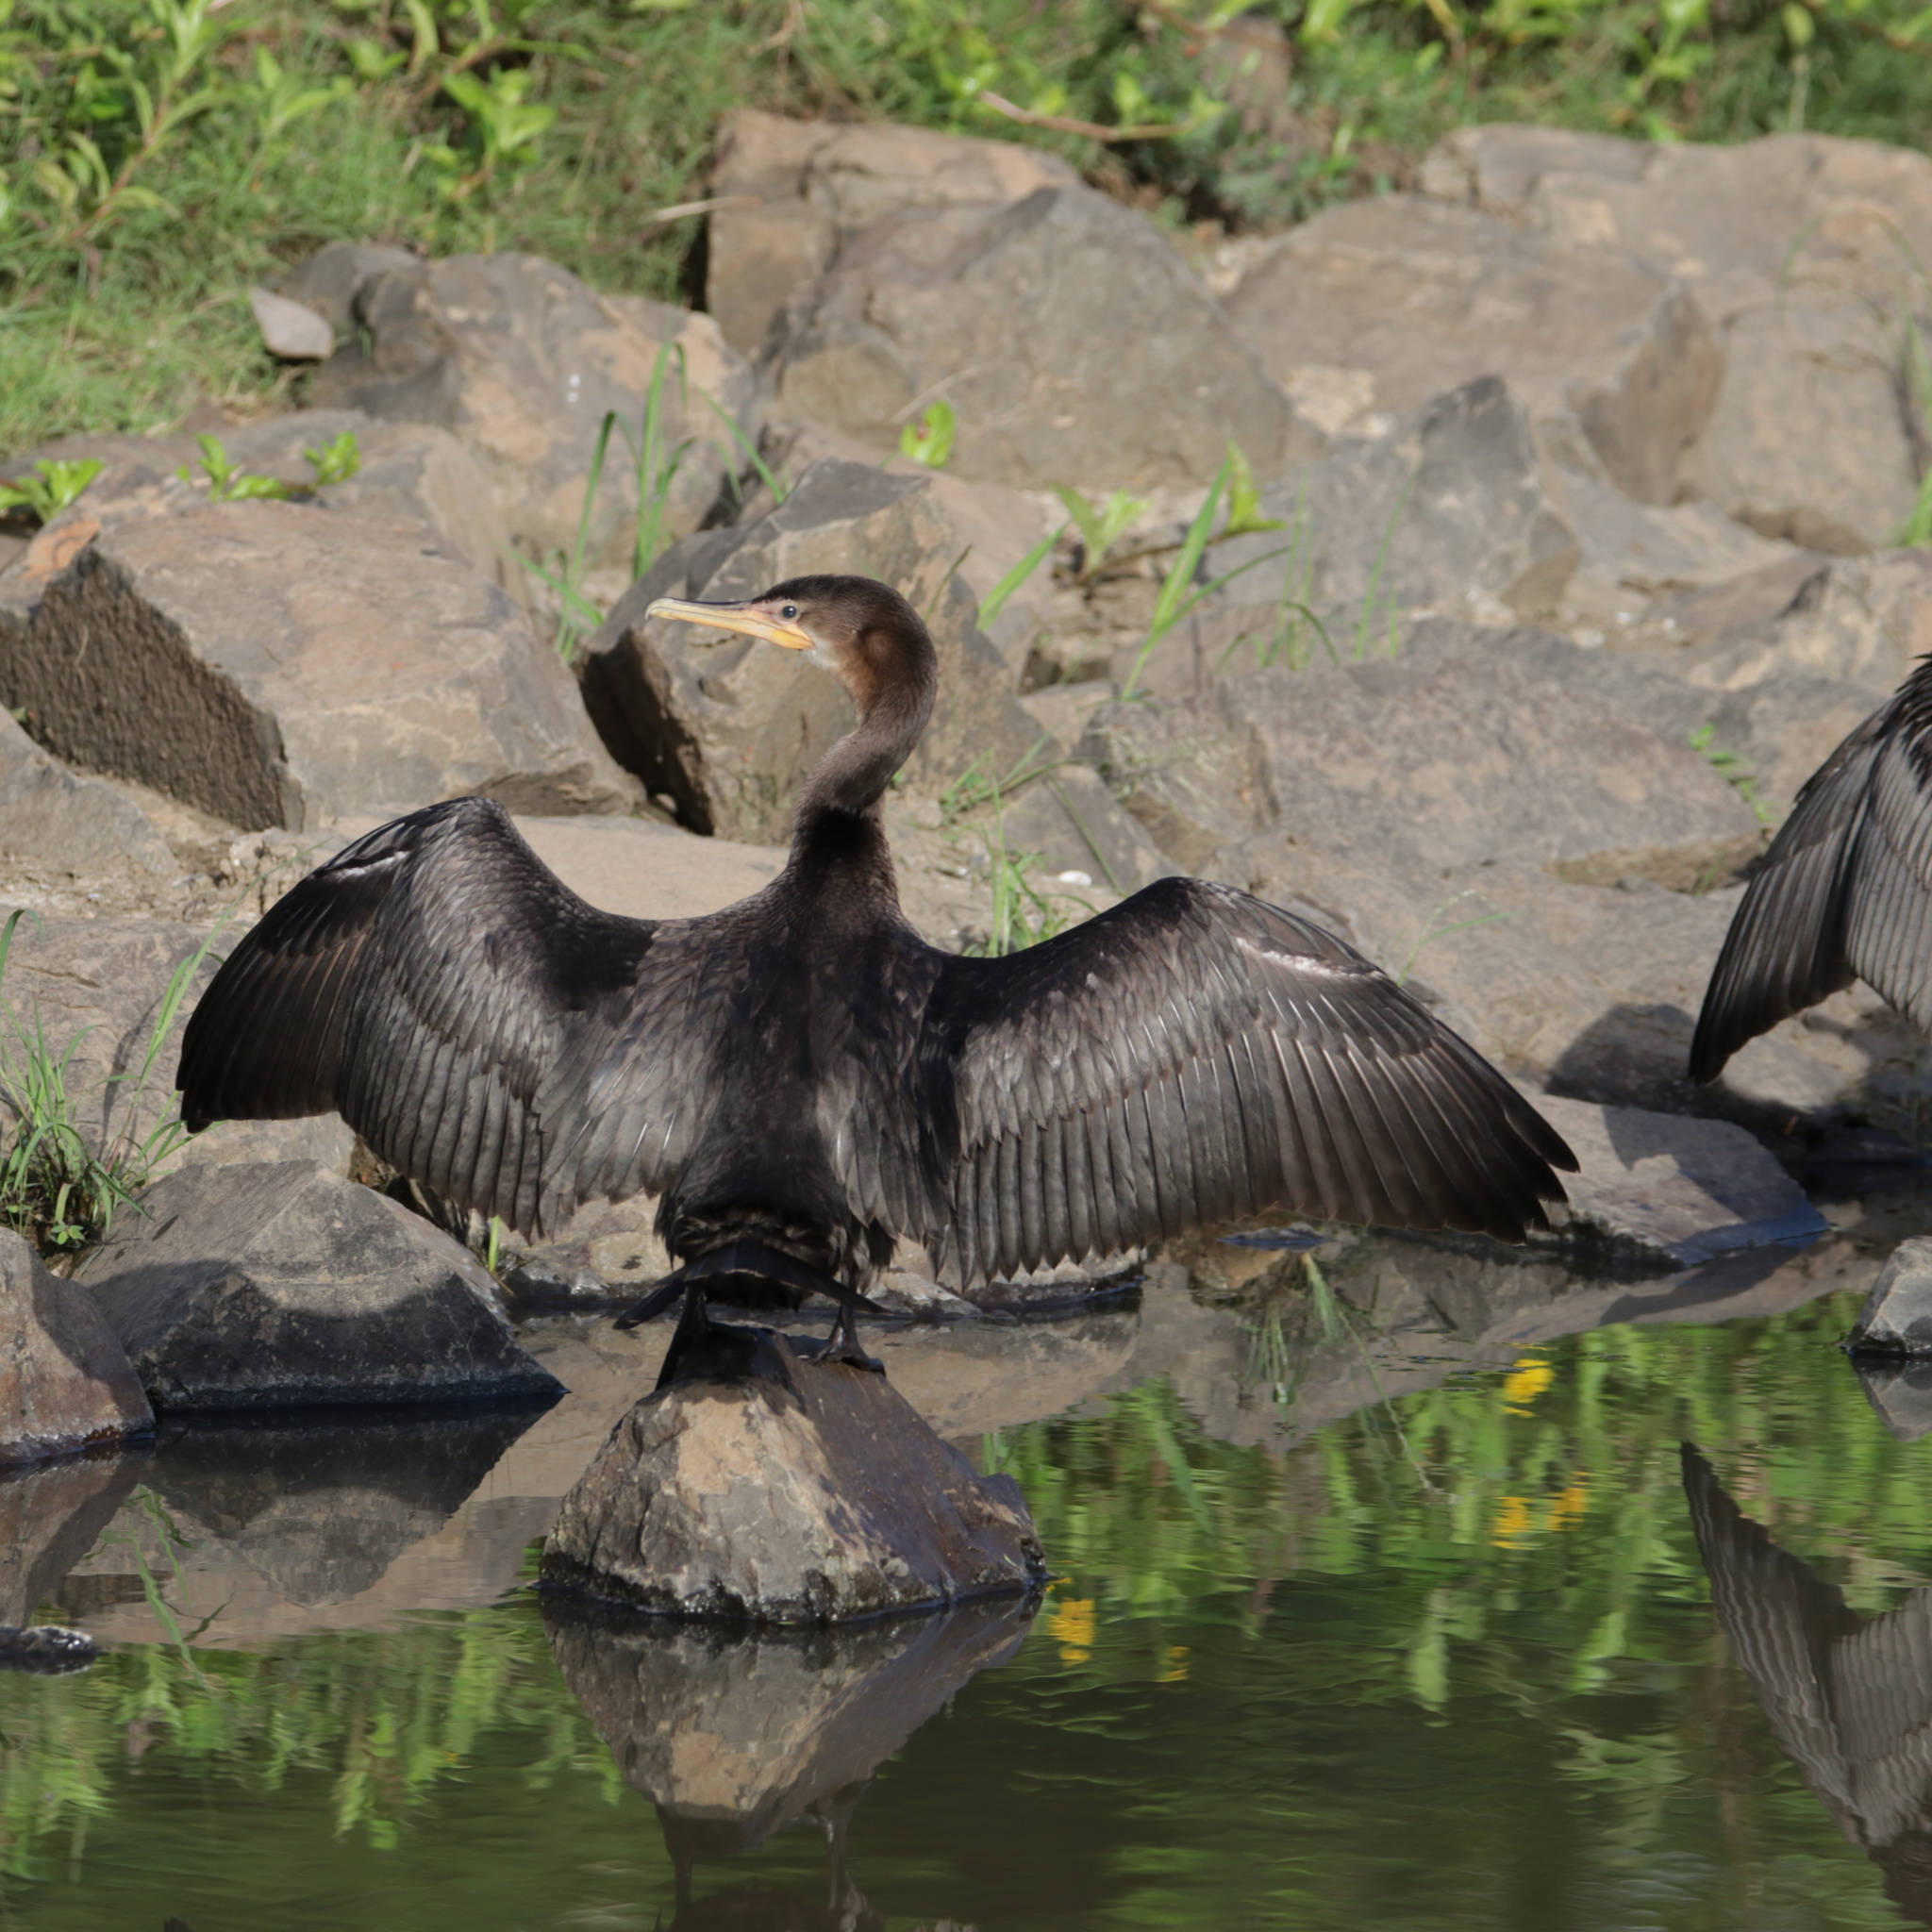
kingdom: Animalia
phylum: Chordata
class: Aves
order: Suliformes
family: Phalacrocoracidae
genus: Phalacrocorax
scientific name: Phalacrocorax brasilianus
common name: Neotropic cormorant
